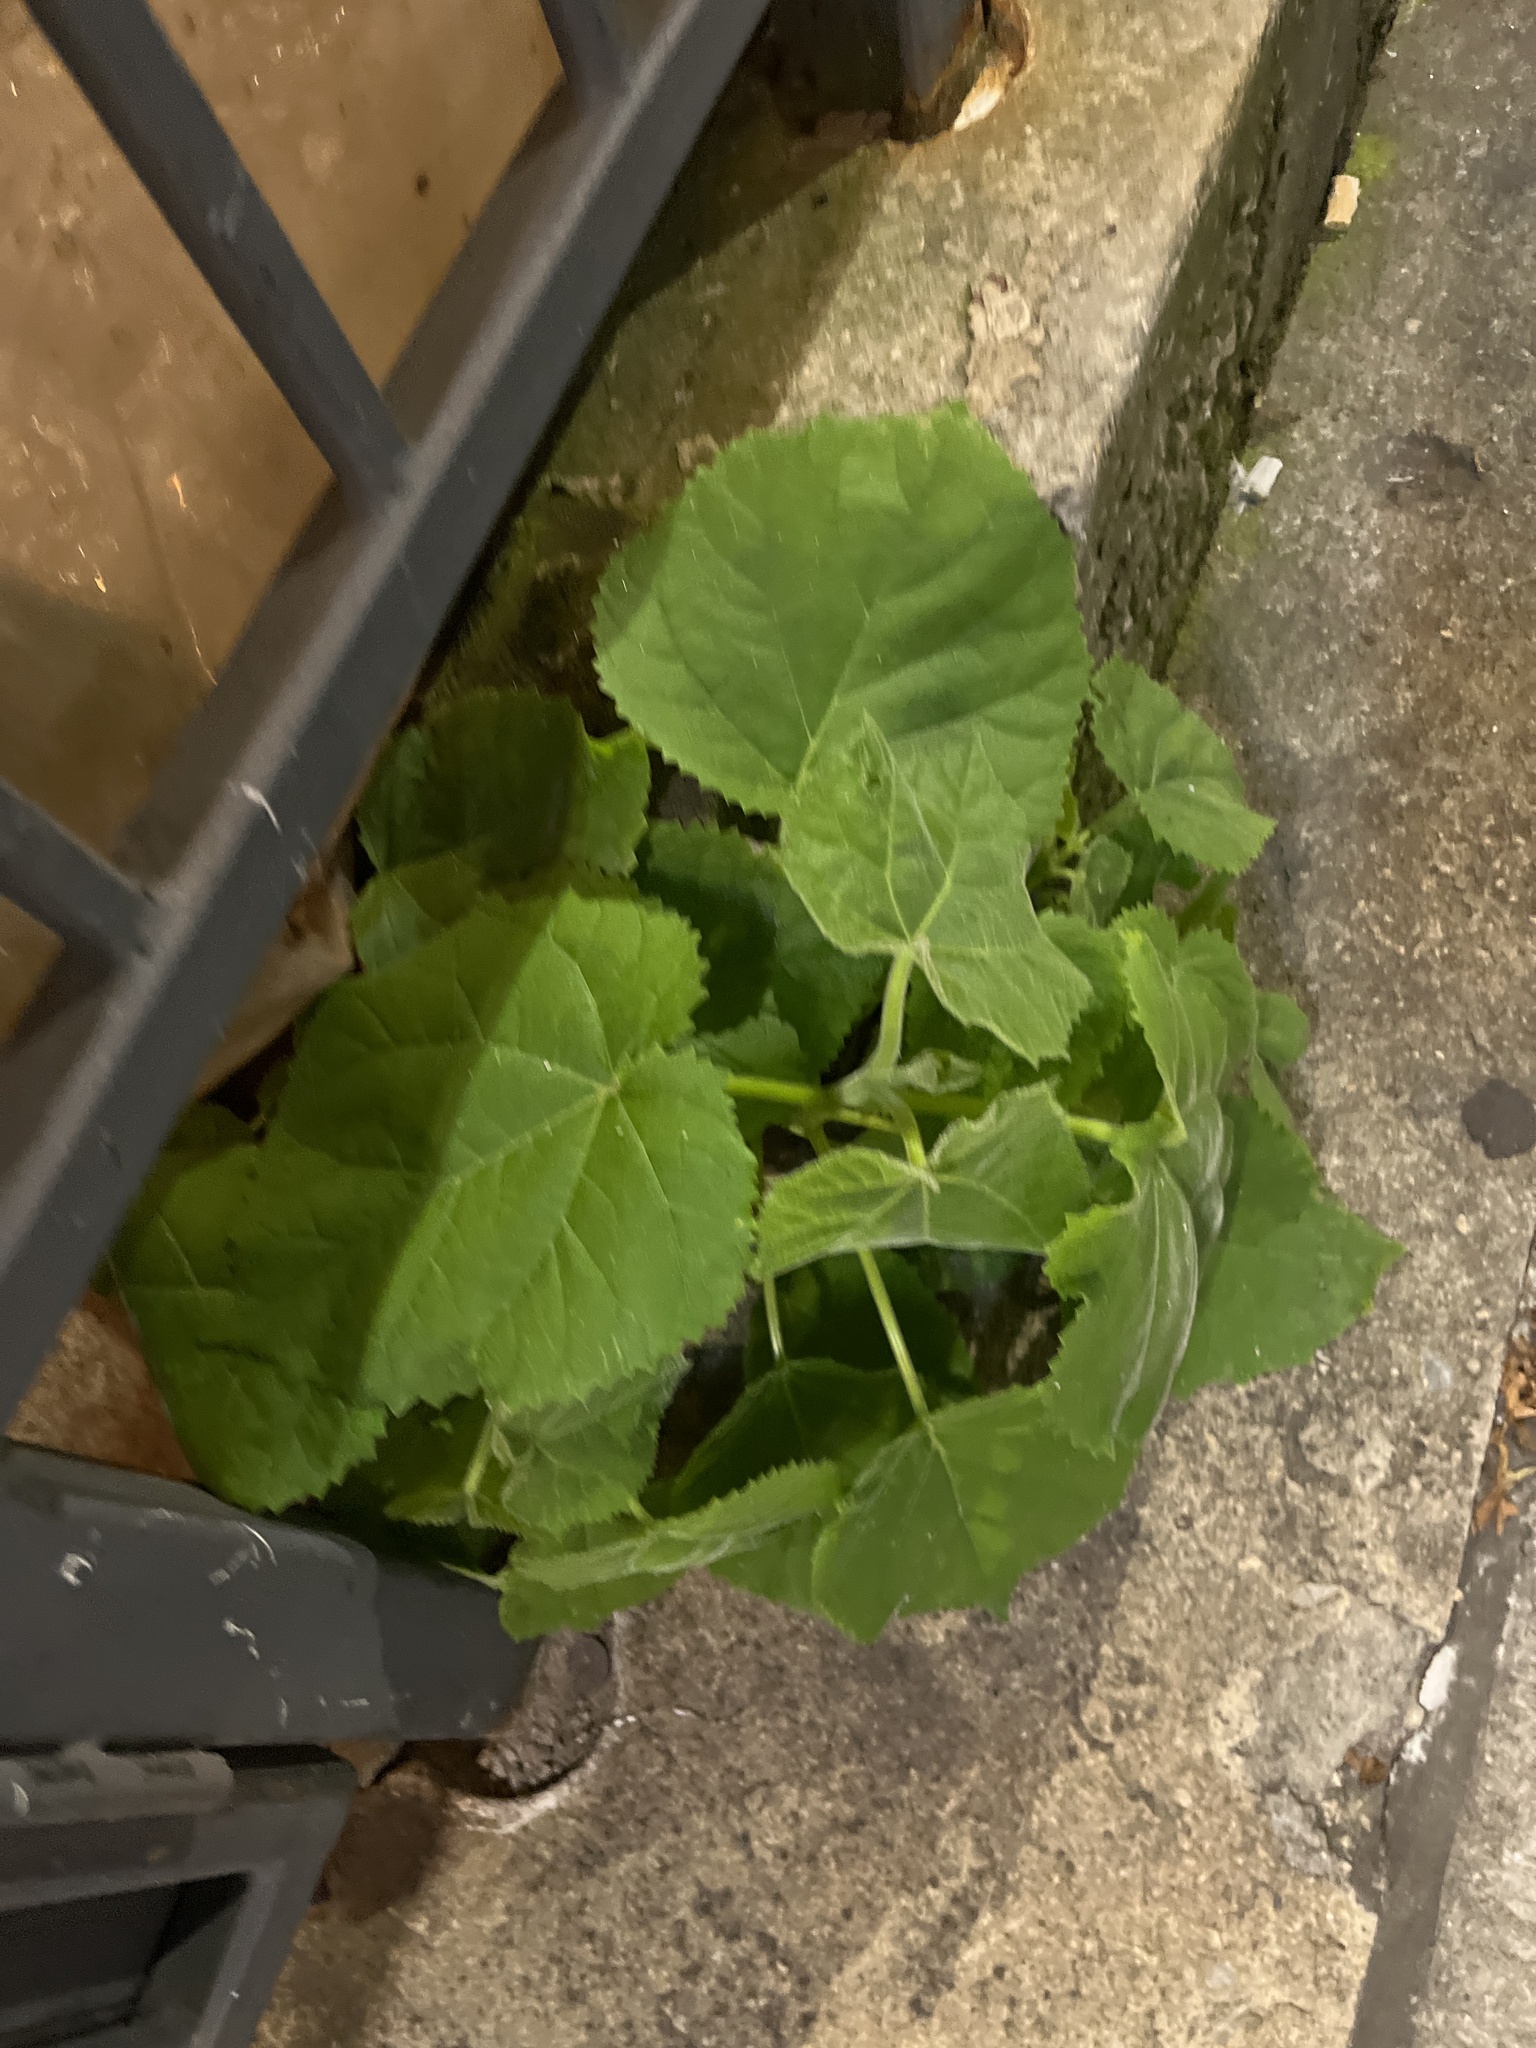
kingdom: Plantae
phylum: Tracheophyta
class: Magnoliopsida
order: Lamiales
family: Paulowniaceae
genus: Paulownia
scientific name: Paulownia tomentosa
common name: Foxglove-tree
